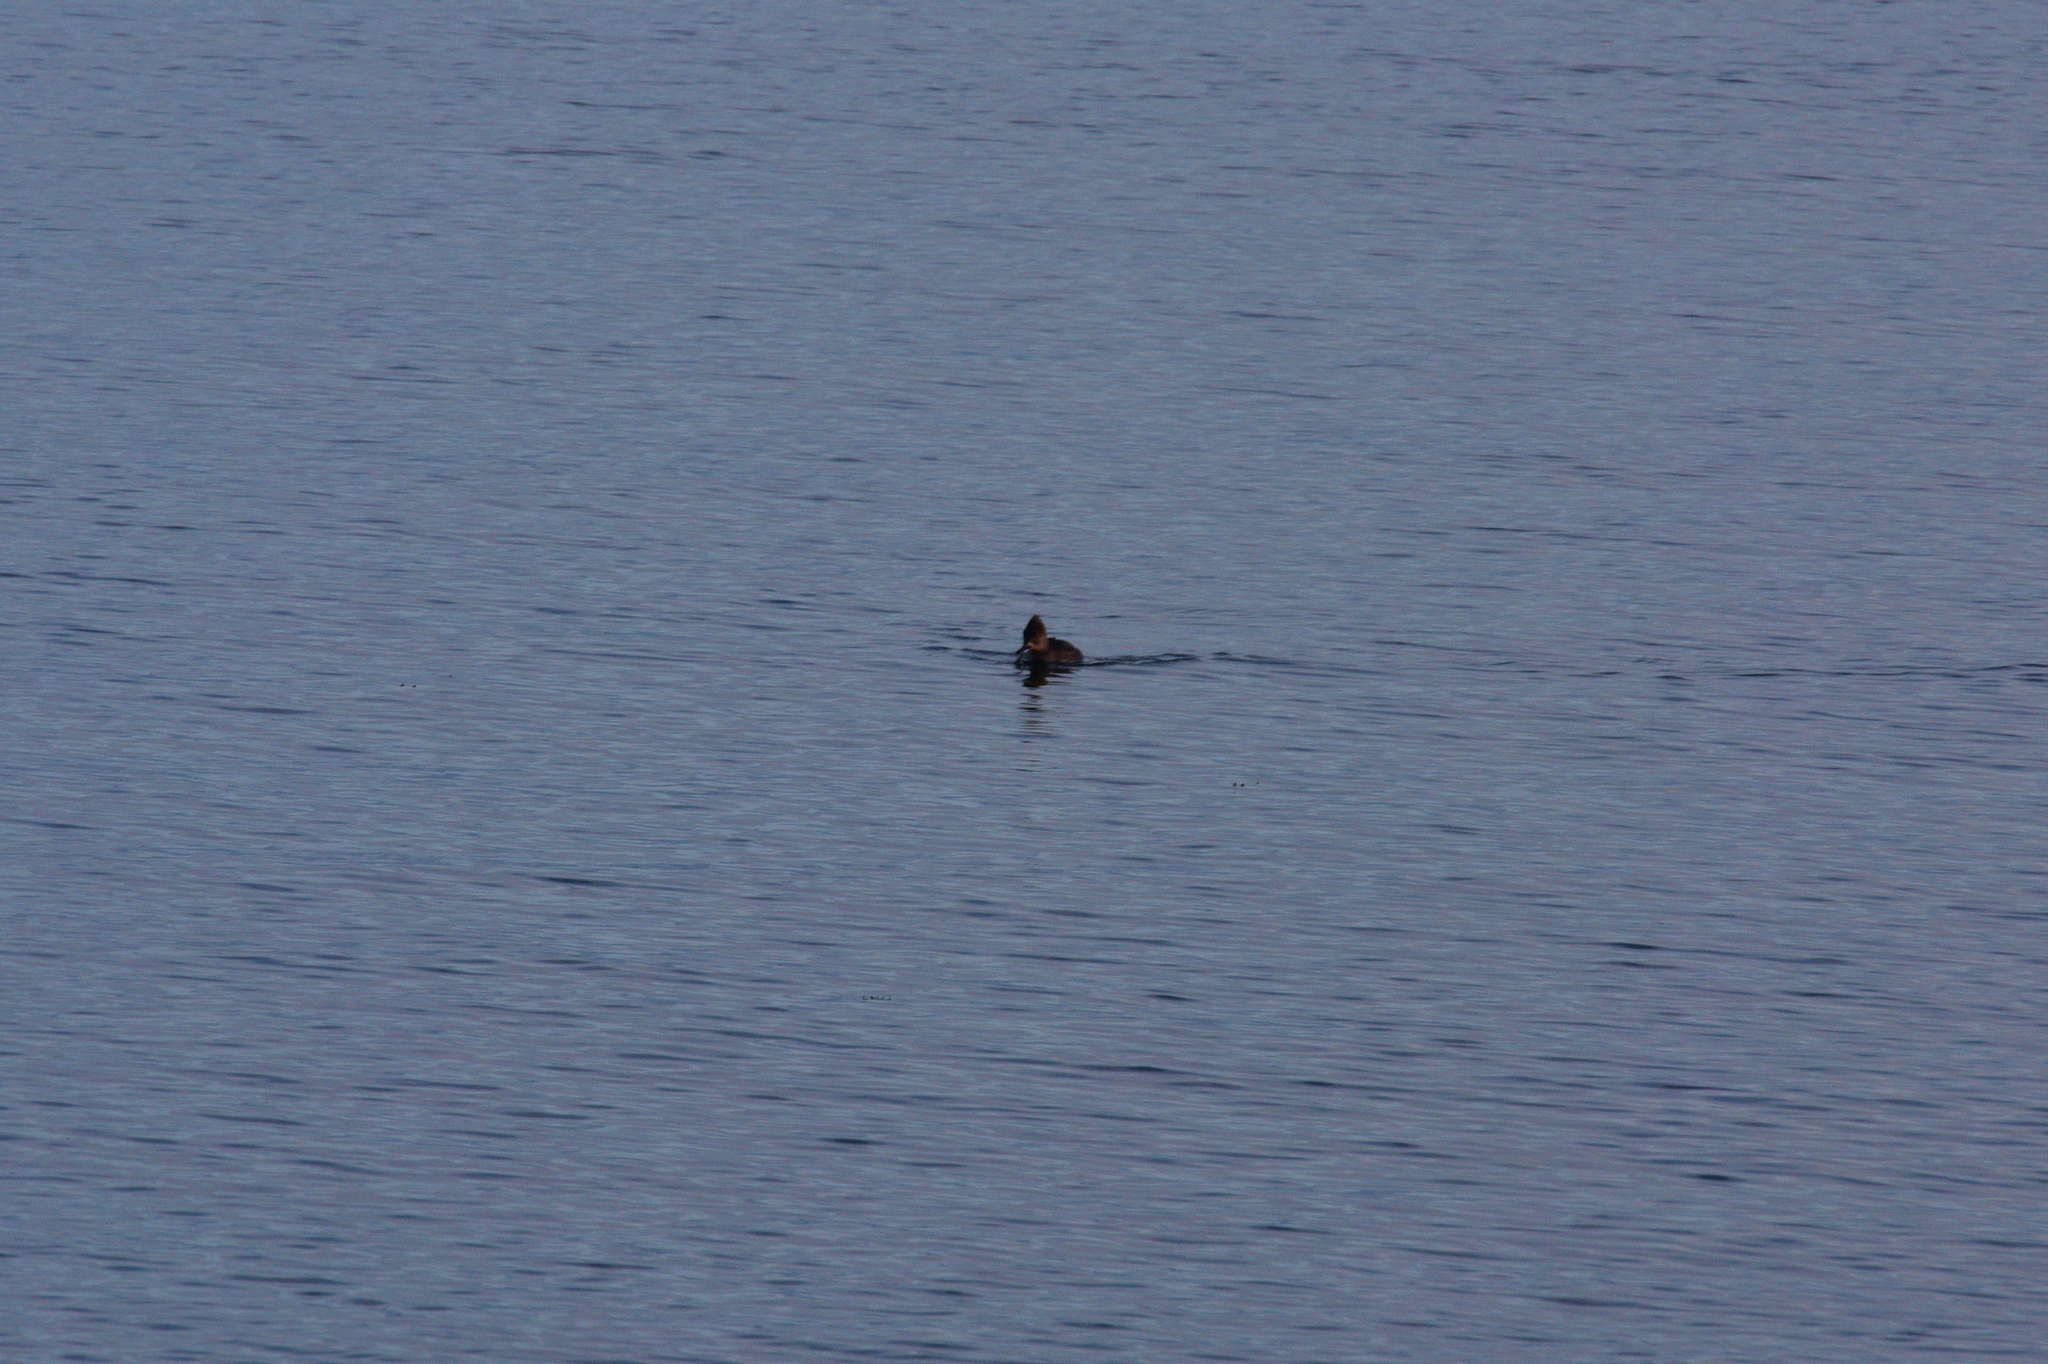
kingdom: Animalia
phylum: Chordata
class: Aves
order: Anseriformes
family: Anatidae
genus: Lophodytes
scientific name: Lophodytes cucullatus
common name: Hooded merganser
